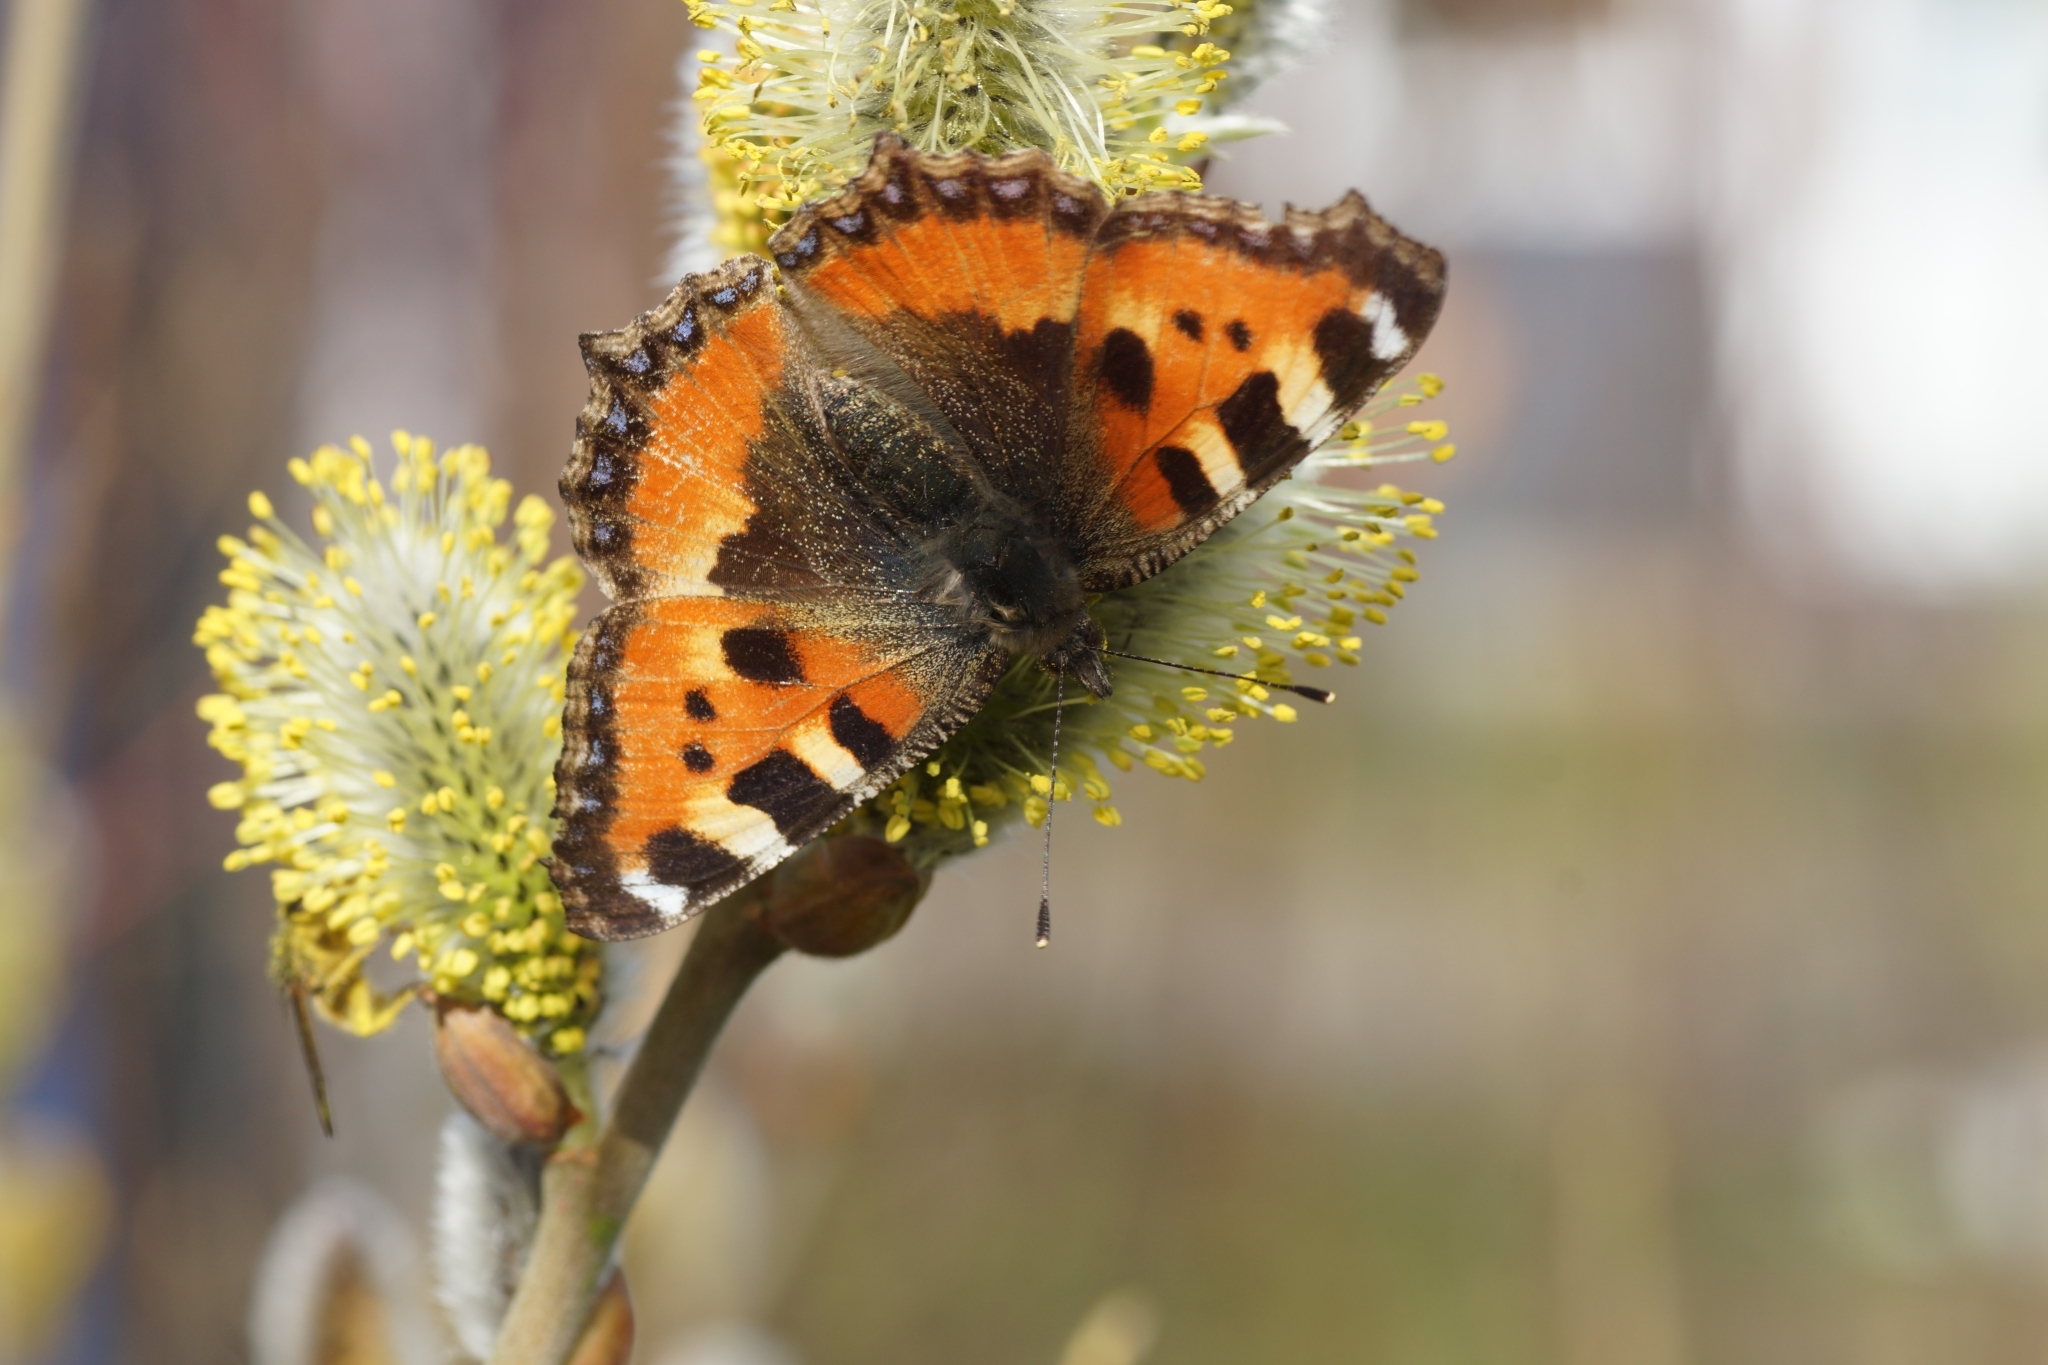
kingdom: Animalia
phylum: Arthropoda
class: Insecta
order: Lepidoptera
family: Nymphalidae
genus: Aglais
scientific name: Aglais urticae
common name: Small tortoiseshell
